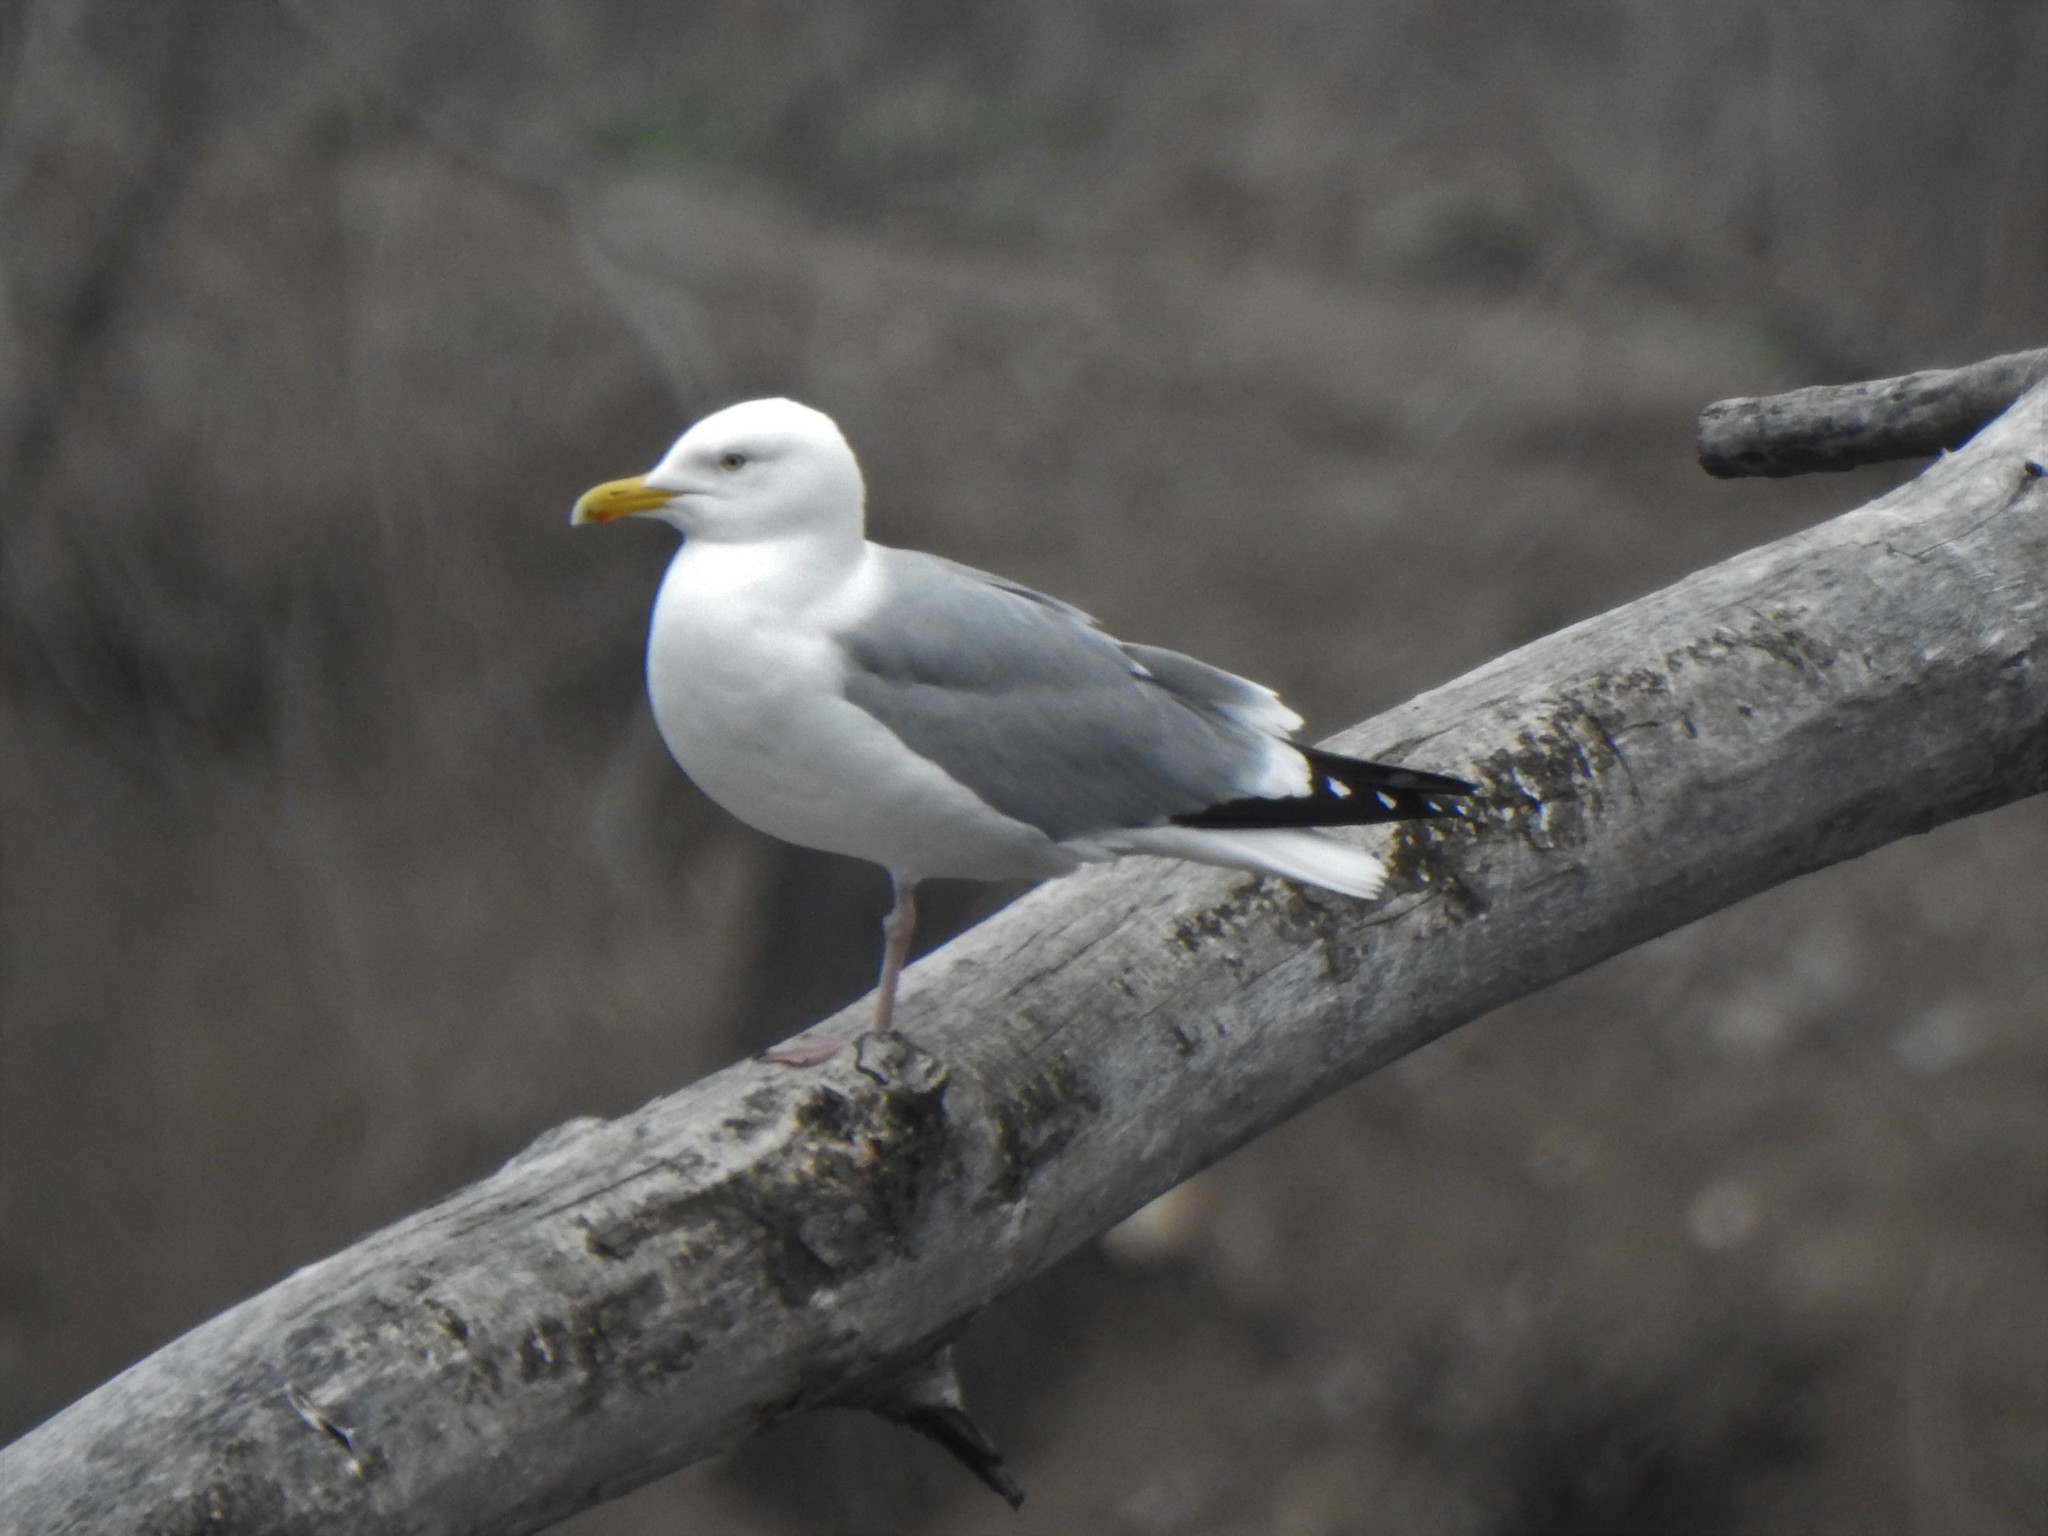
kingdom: Animalia
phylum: Chordata
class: Aves
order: Charadriiformes
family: Laridae
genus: Larus
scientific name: Larus argentatus
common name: Herring gull
